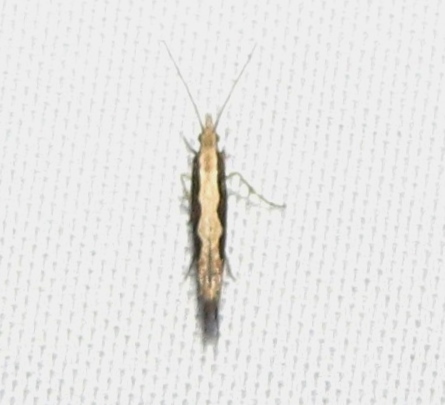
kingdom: Animalia
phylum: Arthropoda
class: Insecta
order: Lepidoptera
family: Plutellidae
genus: Plutella
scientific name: Plutella xylostella
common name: Diamond-back moth
